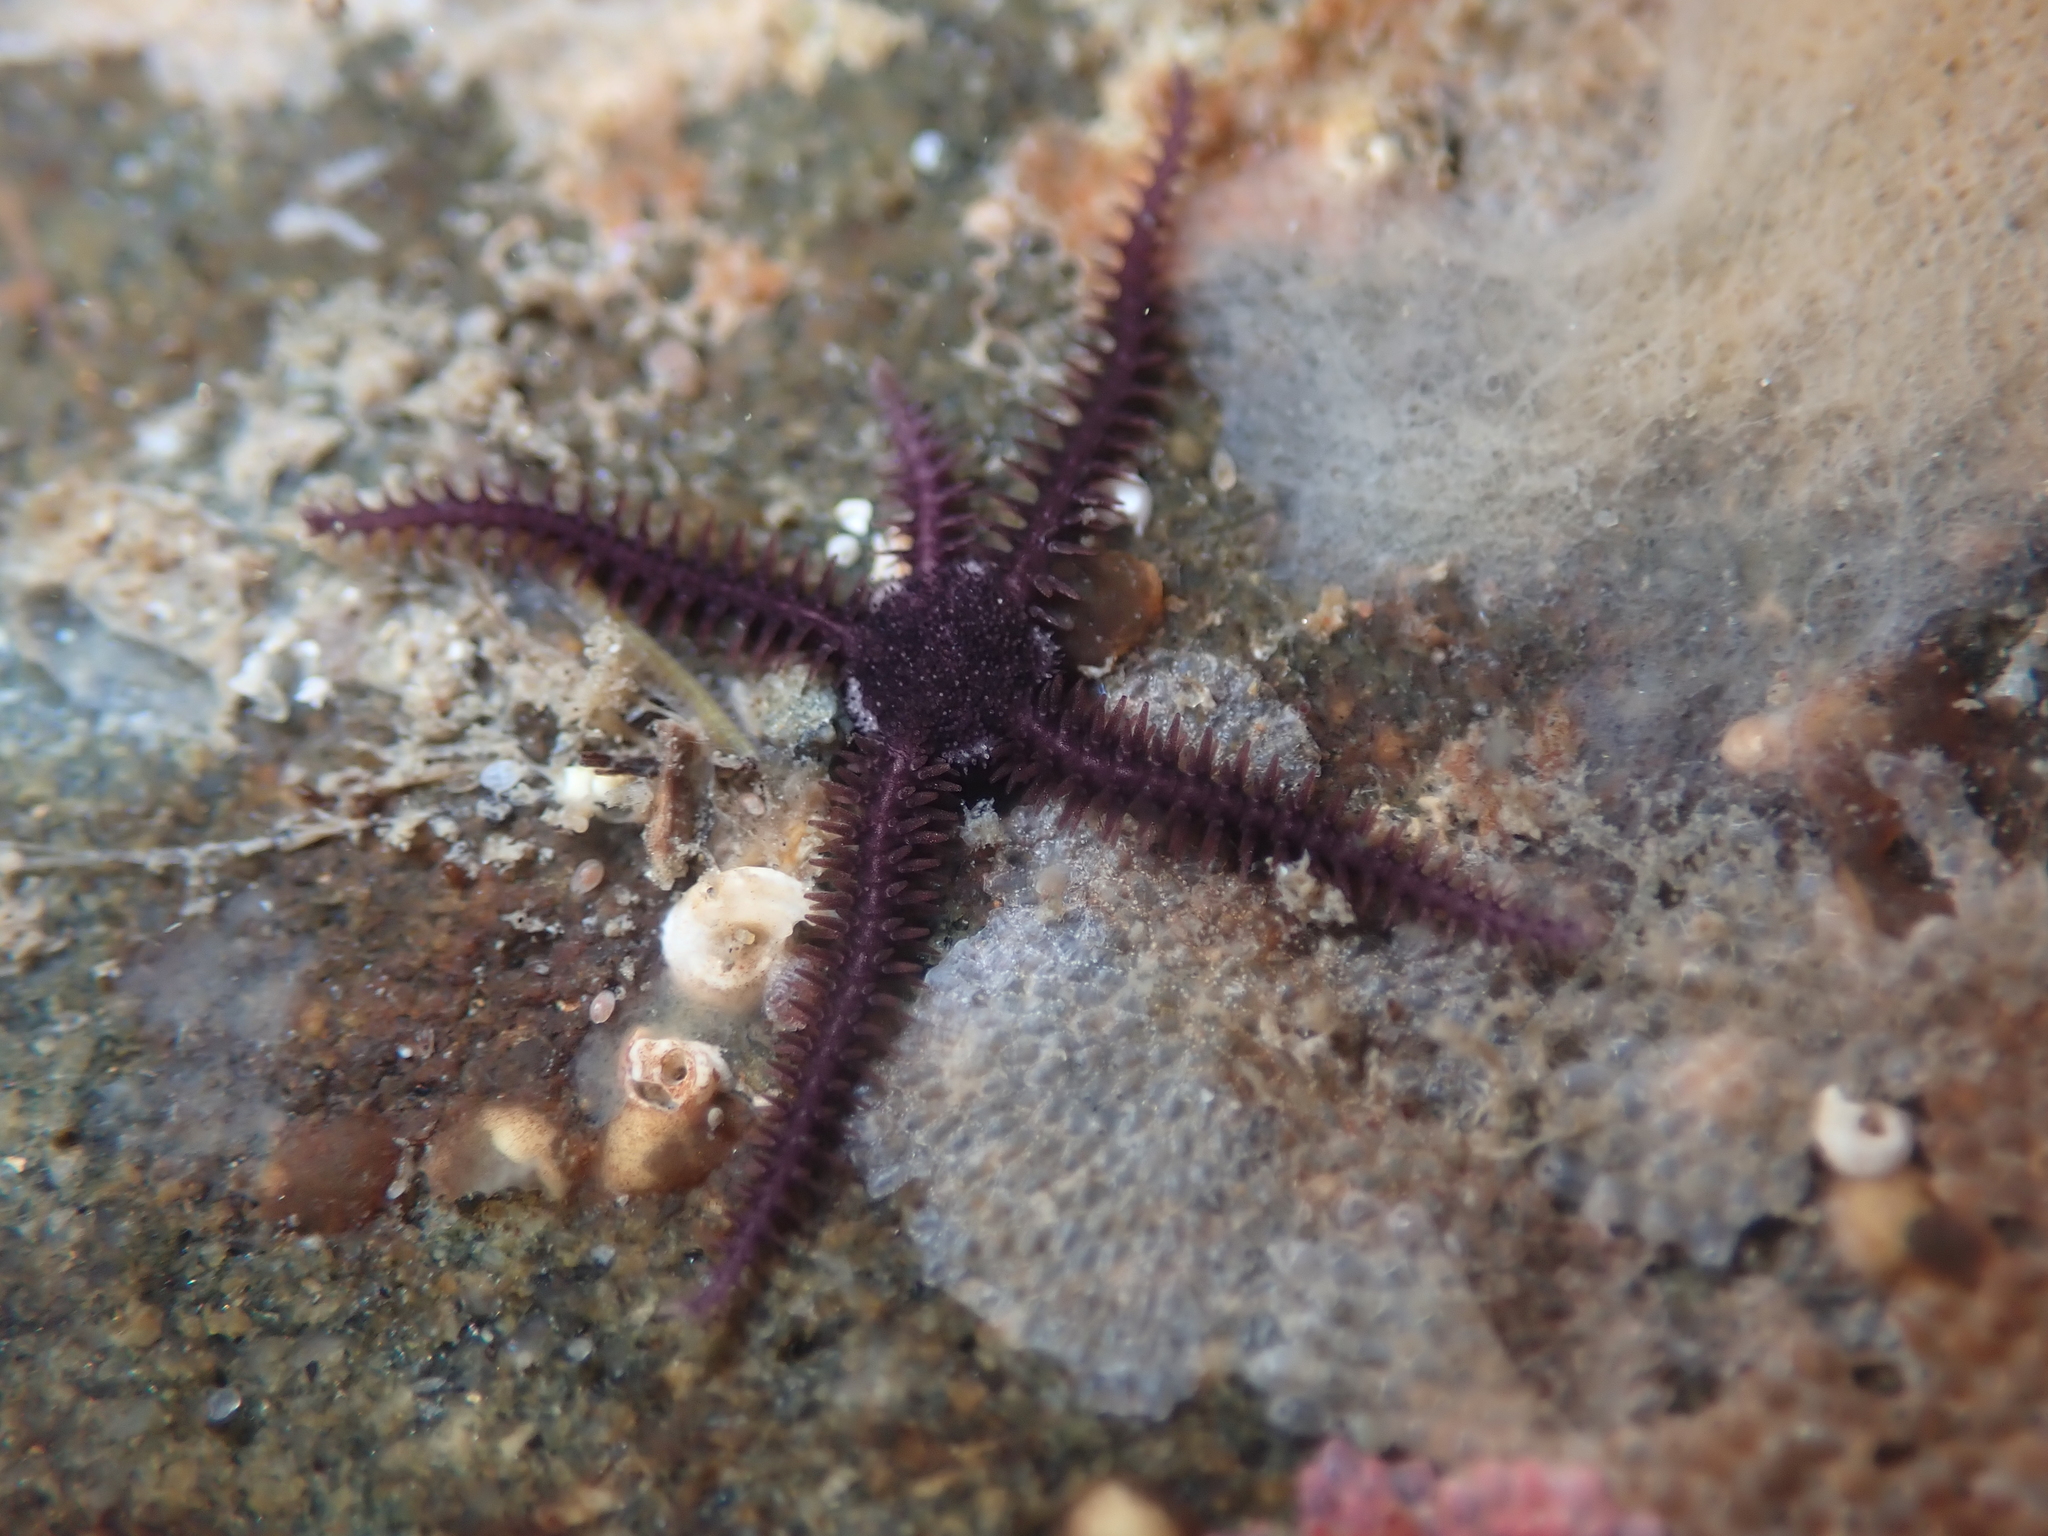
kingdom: Animalia
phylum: Echinodermata
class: Ophiuroidea
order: Ophiacanthida
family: Ophiopteridae
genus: Ophiopteris
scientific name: Ophiopteris antipodum
